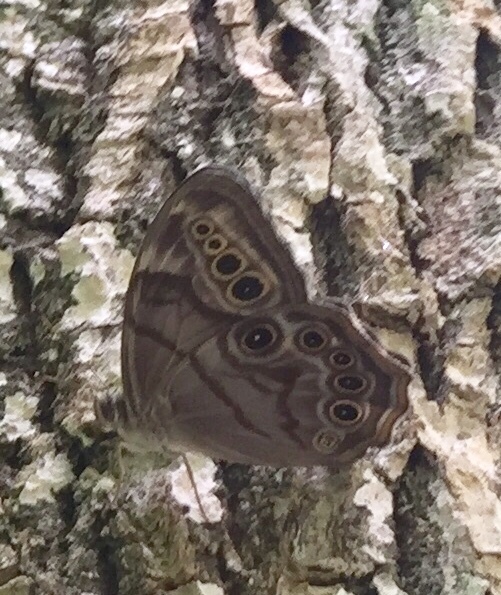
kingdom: Animalia
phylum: Arthropoda
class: Insecta
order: Lepidoptera
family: Nymphalidae
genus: Lethe
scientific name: Lethe anthedon
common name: Northern pearly-eye
